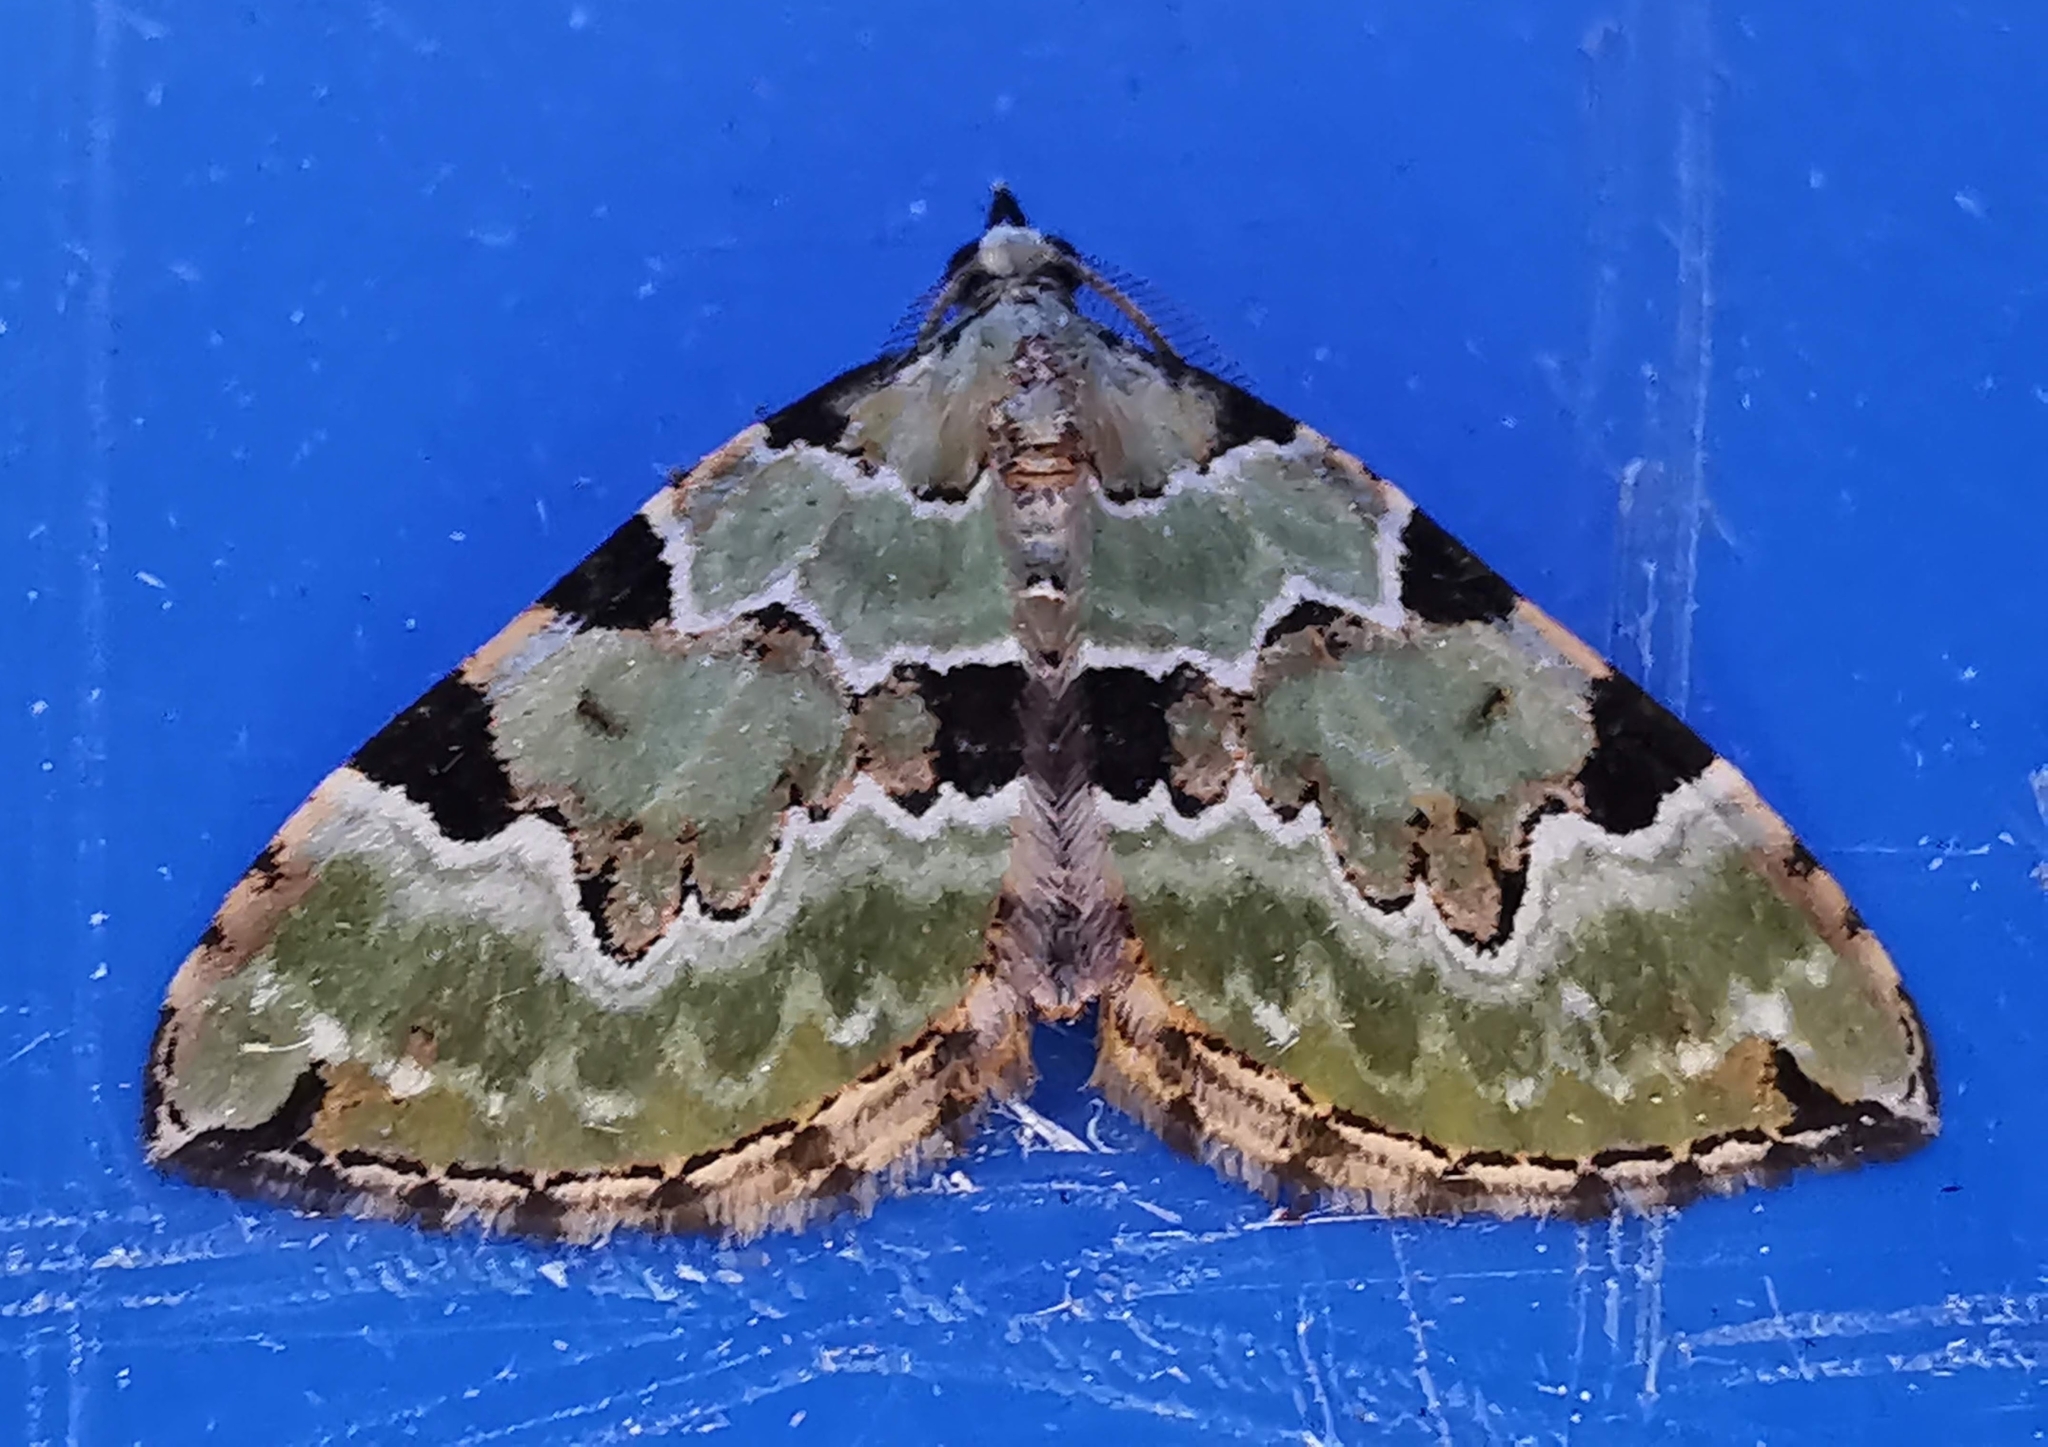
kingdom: Animalia
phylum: Arthropoda
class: Insecta
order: Lepidoptera
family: Geometridae
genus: Colostygia
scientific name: Colostygia pectinataria
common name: Green carpet
